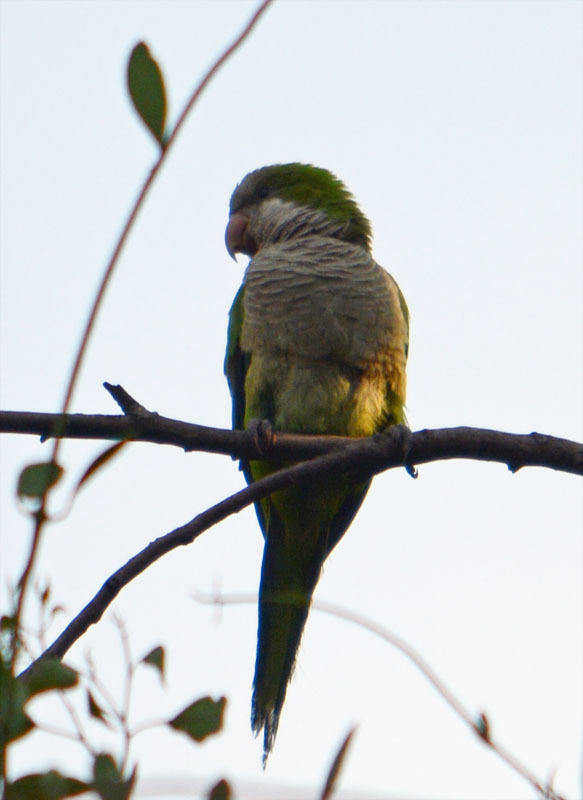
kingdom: Animalia
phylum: Chordata
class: Aves
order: Psittaciformes
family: Psittacidae
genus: Myiopsitta
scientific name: Myiopsitta monachus
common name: Monk parakeet
